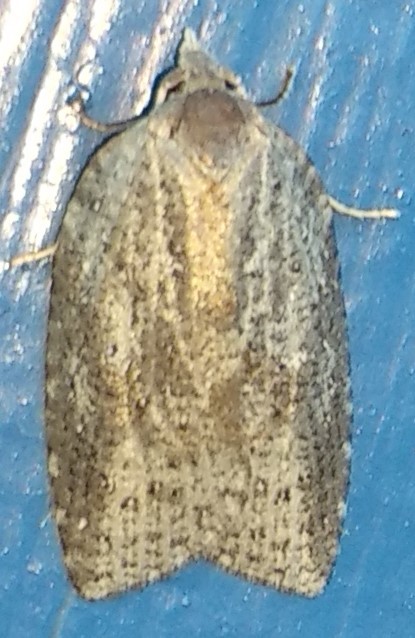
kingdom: Animalia
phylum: Arthropoda
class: Insecta
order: Lepidoptera
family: Tortricidae
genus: Amorbia
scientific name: Amorbia humerosana
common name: White-lined leafroller moth
